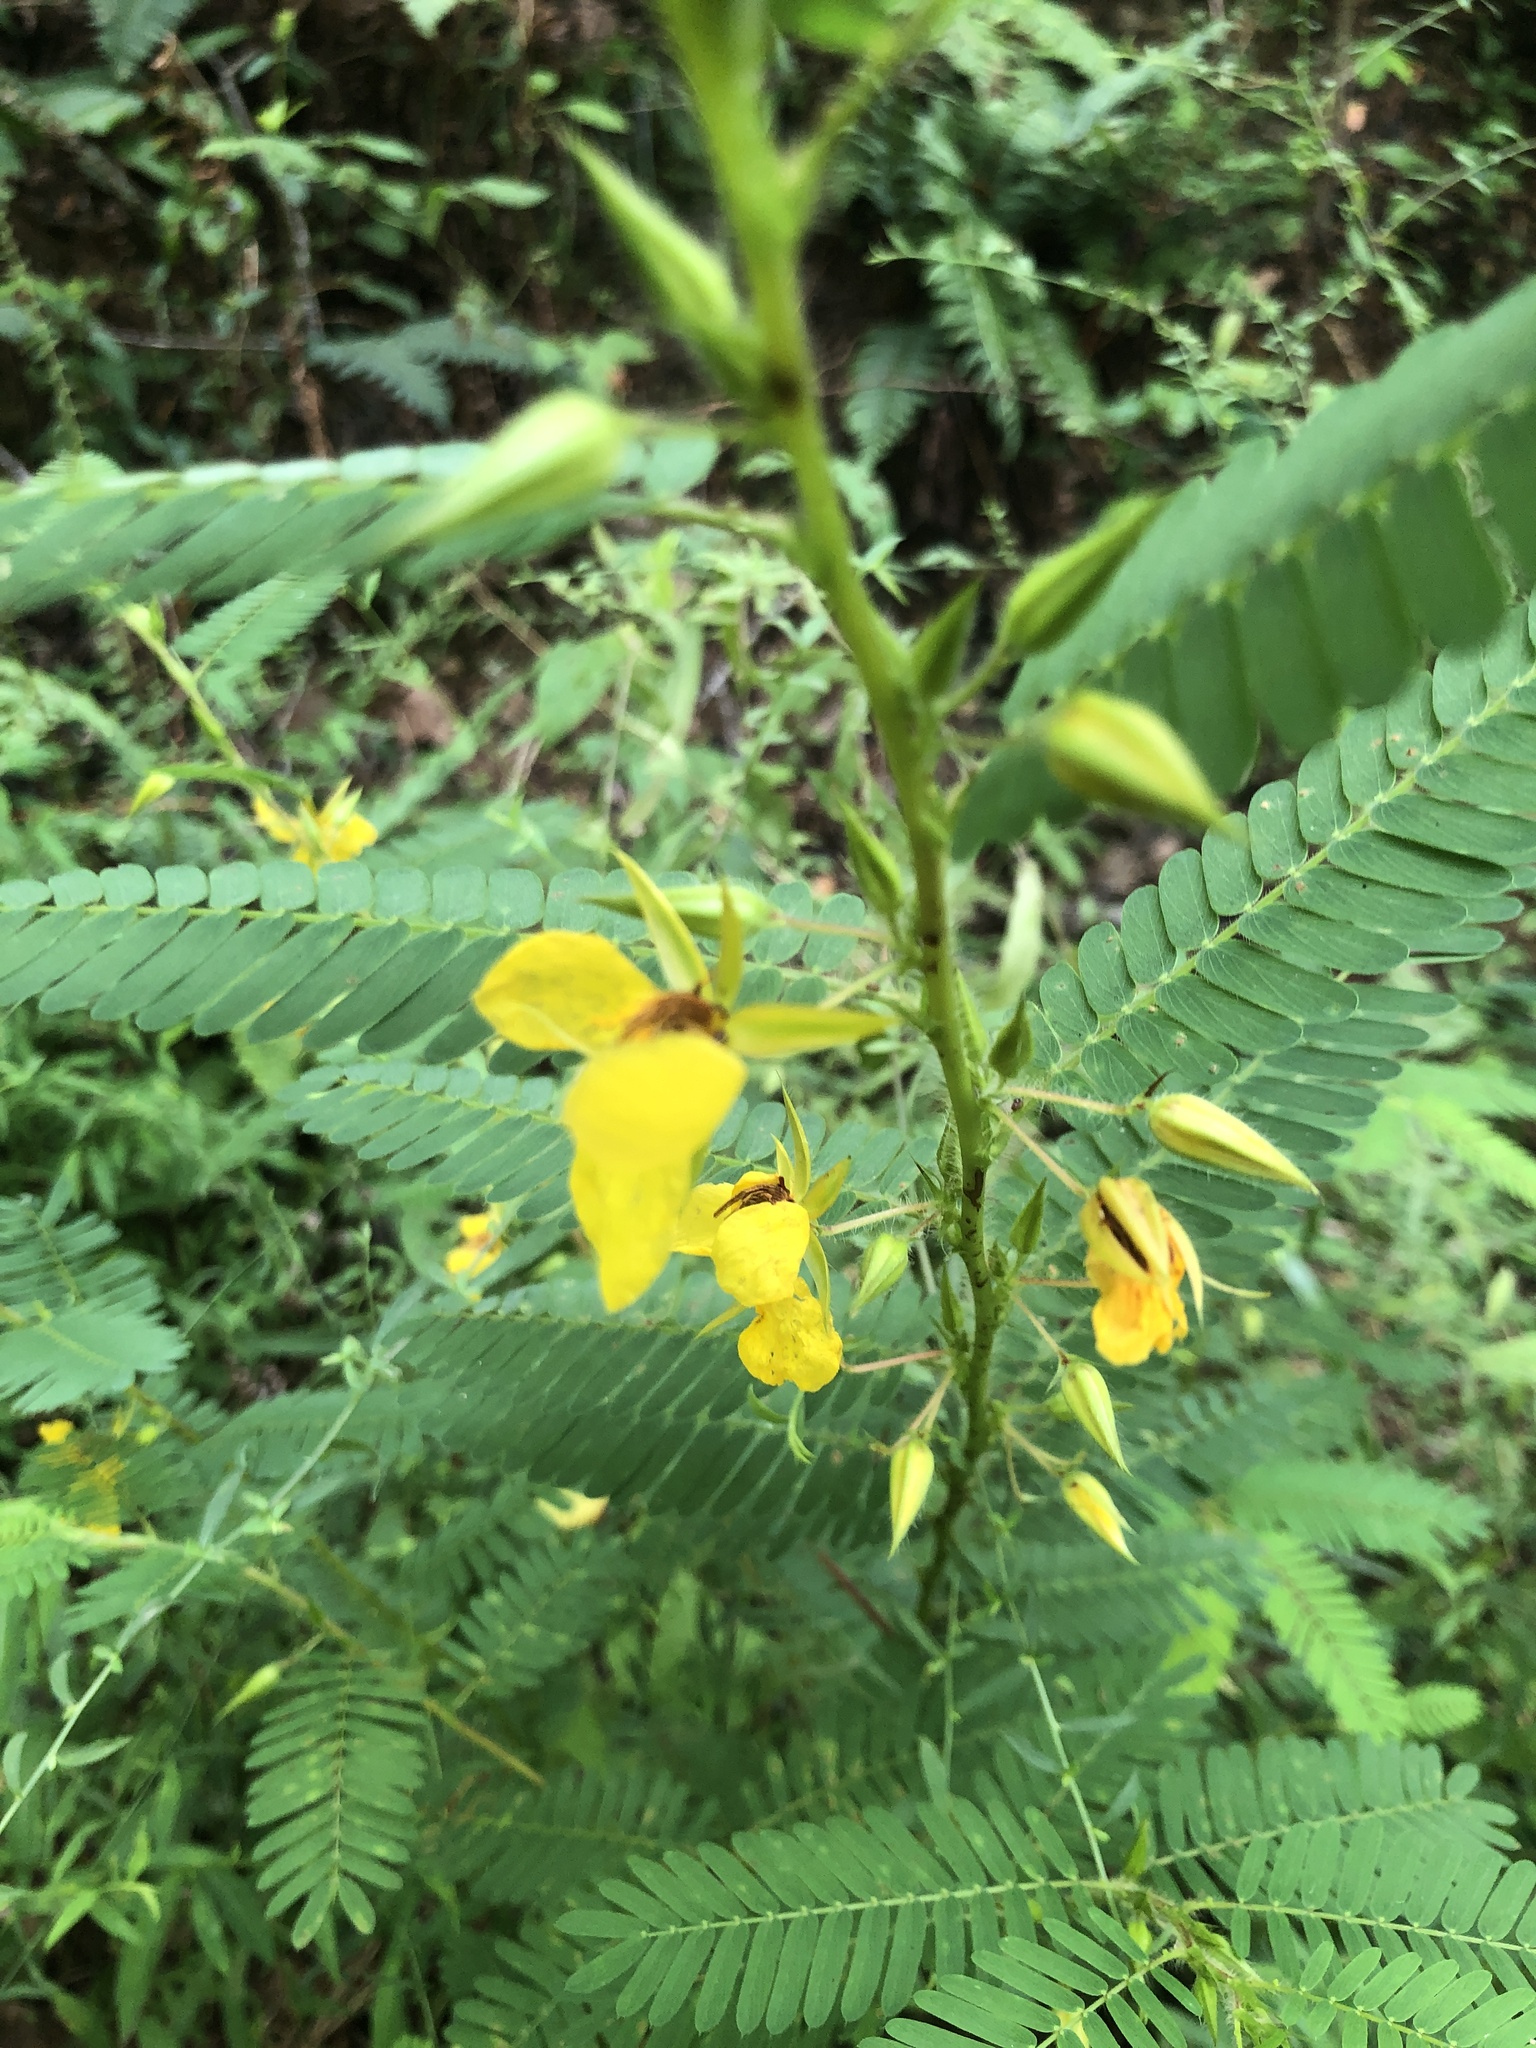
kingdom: Plantae
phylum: Tracheophyta
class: Magnoliopsida
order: Fabales
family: Fabaceae
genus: Chamaecrista
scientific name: Chamaecrista fasciculata
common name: Golden cassia
